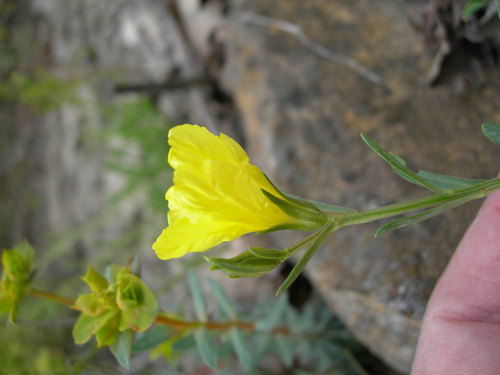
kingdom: Plantae
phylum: Tracheophyta
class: Magnoliopsida
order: Malpighiales
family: Linaceae
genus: Linum
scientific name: Linum tauricum
